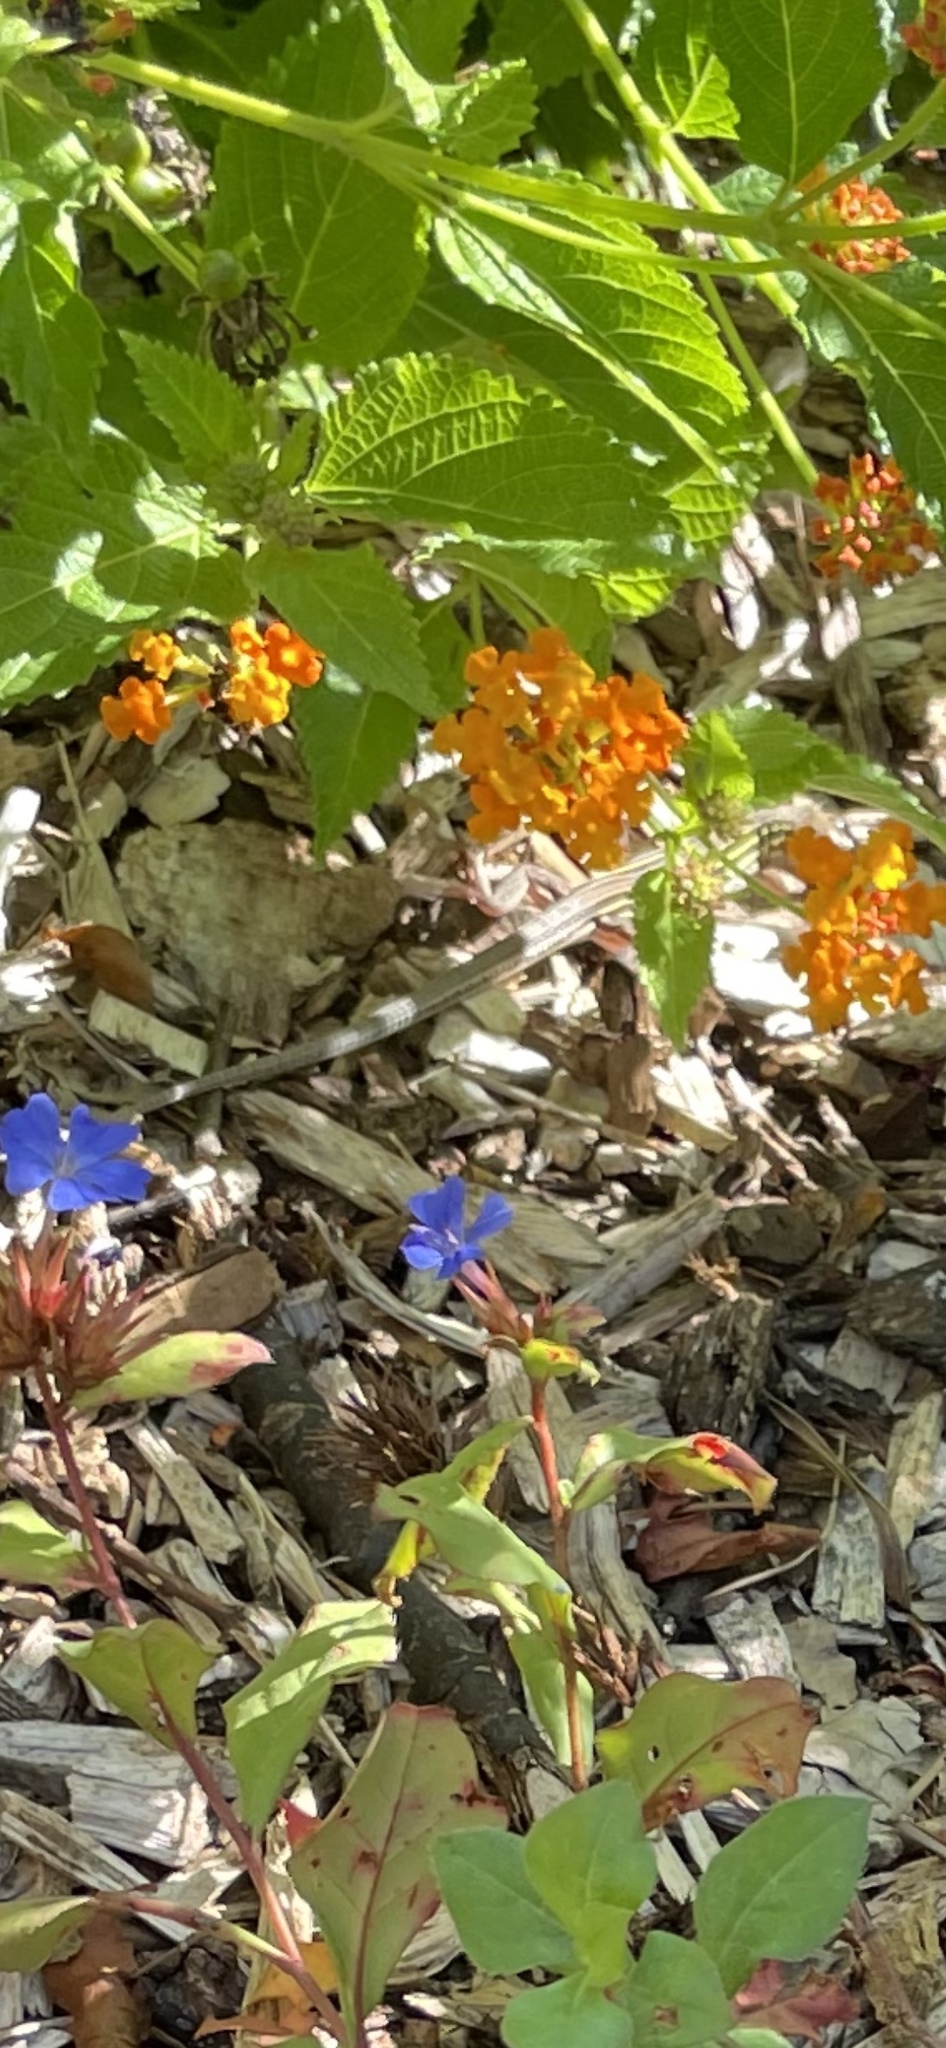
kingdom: Animalia
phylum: Chordata
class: Squamata
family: Teiidae
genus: Aspidoscelis
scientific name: Aspidoscelis sexlineatus
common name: Six-lined racerunner
